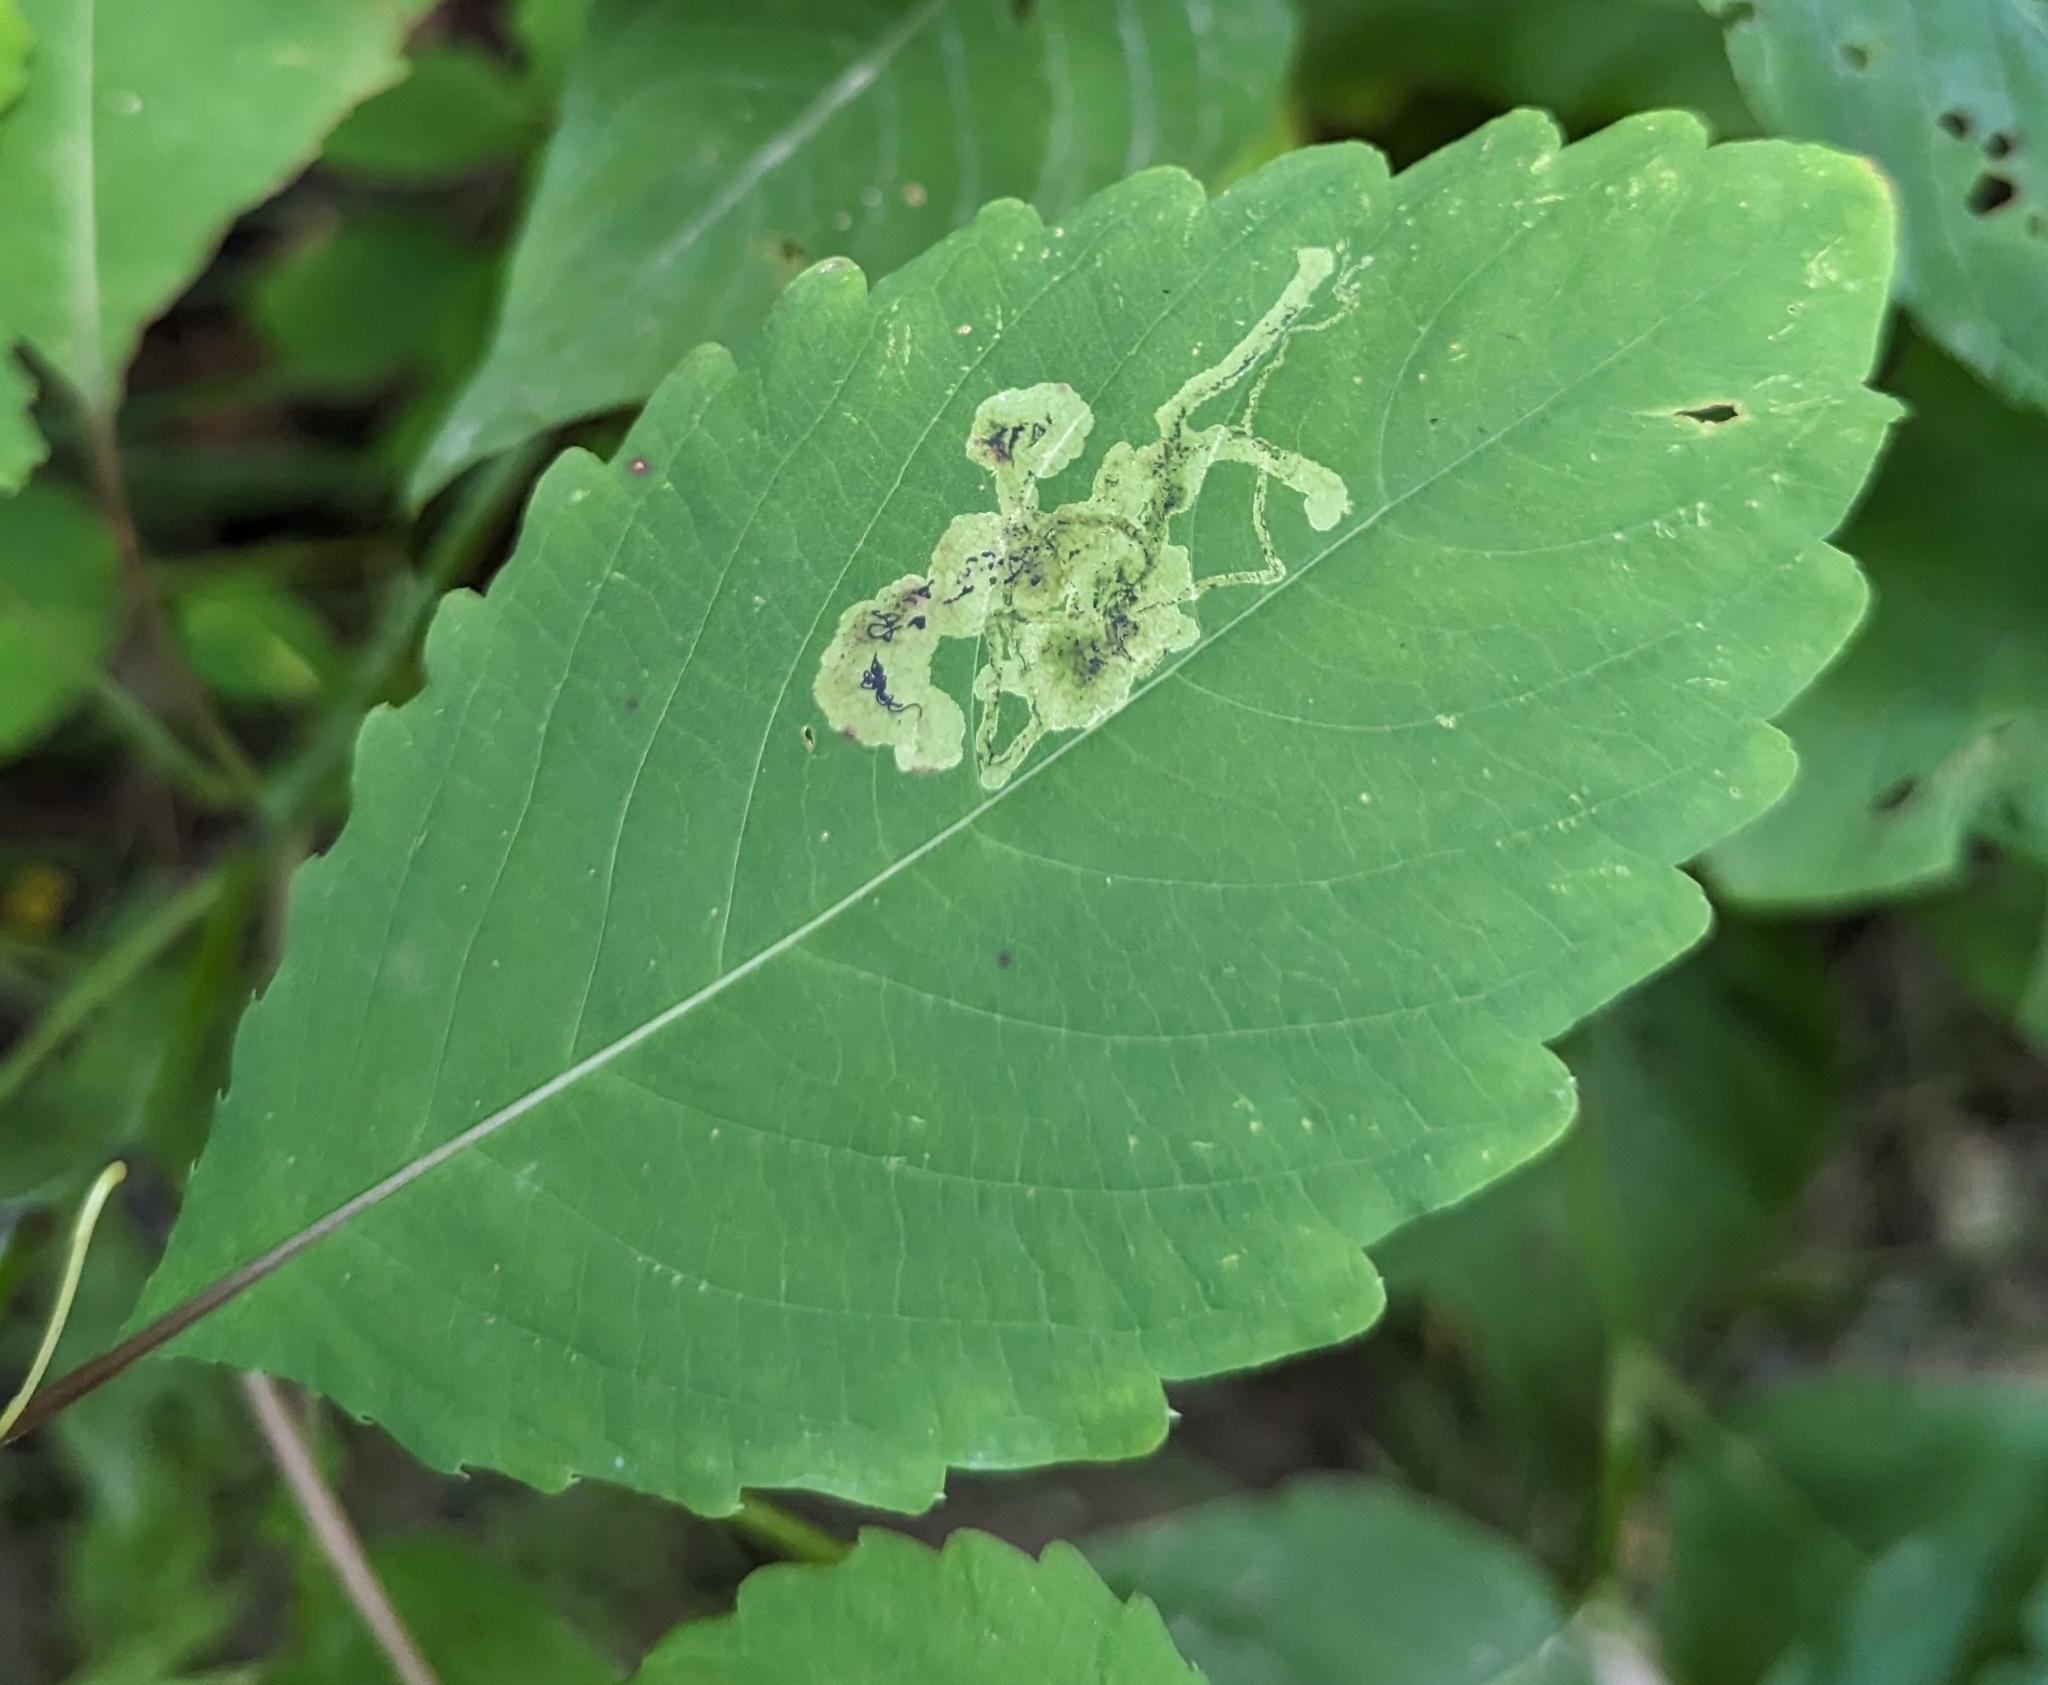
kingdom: Plantae
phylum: Tracheophyta
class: Magnoliopsida
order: Ericales
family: Balsaminaceae
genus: Impatiens
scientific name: Impatiens pallida
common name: Pale snapweed
